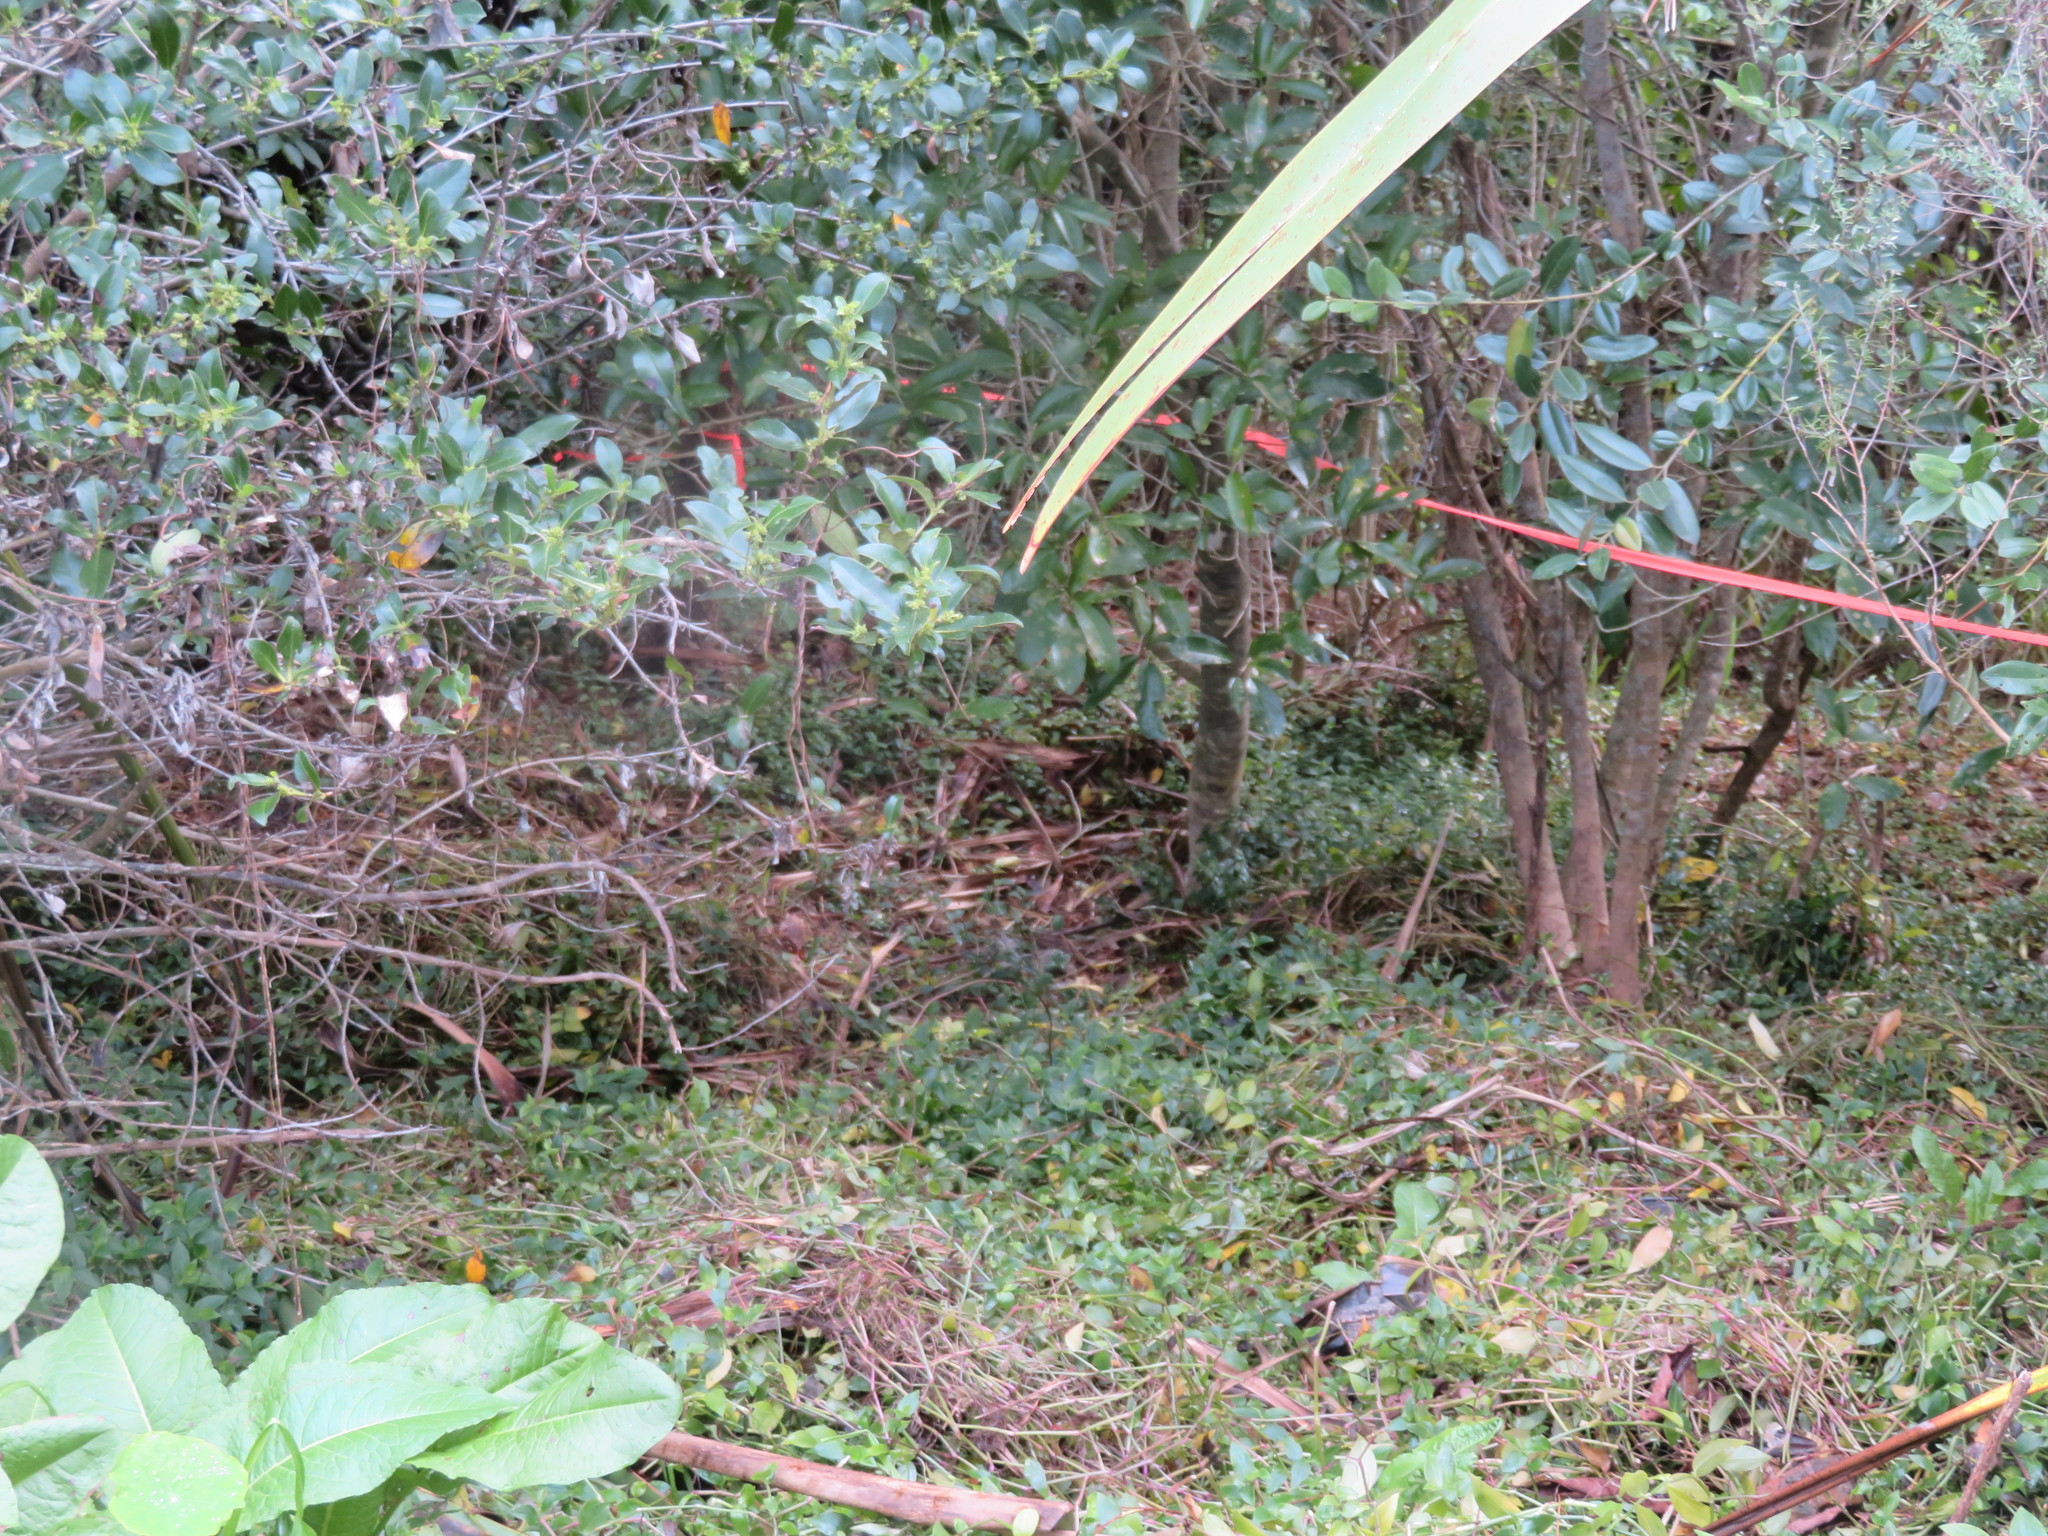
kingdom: Plantae
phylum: Tracheophyta
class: Magnoliopsida
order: Myrtales
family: Myrtaceae
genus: Metrosideros
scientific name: Metrosideros excelsa
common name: New zealand christmastree
